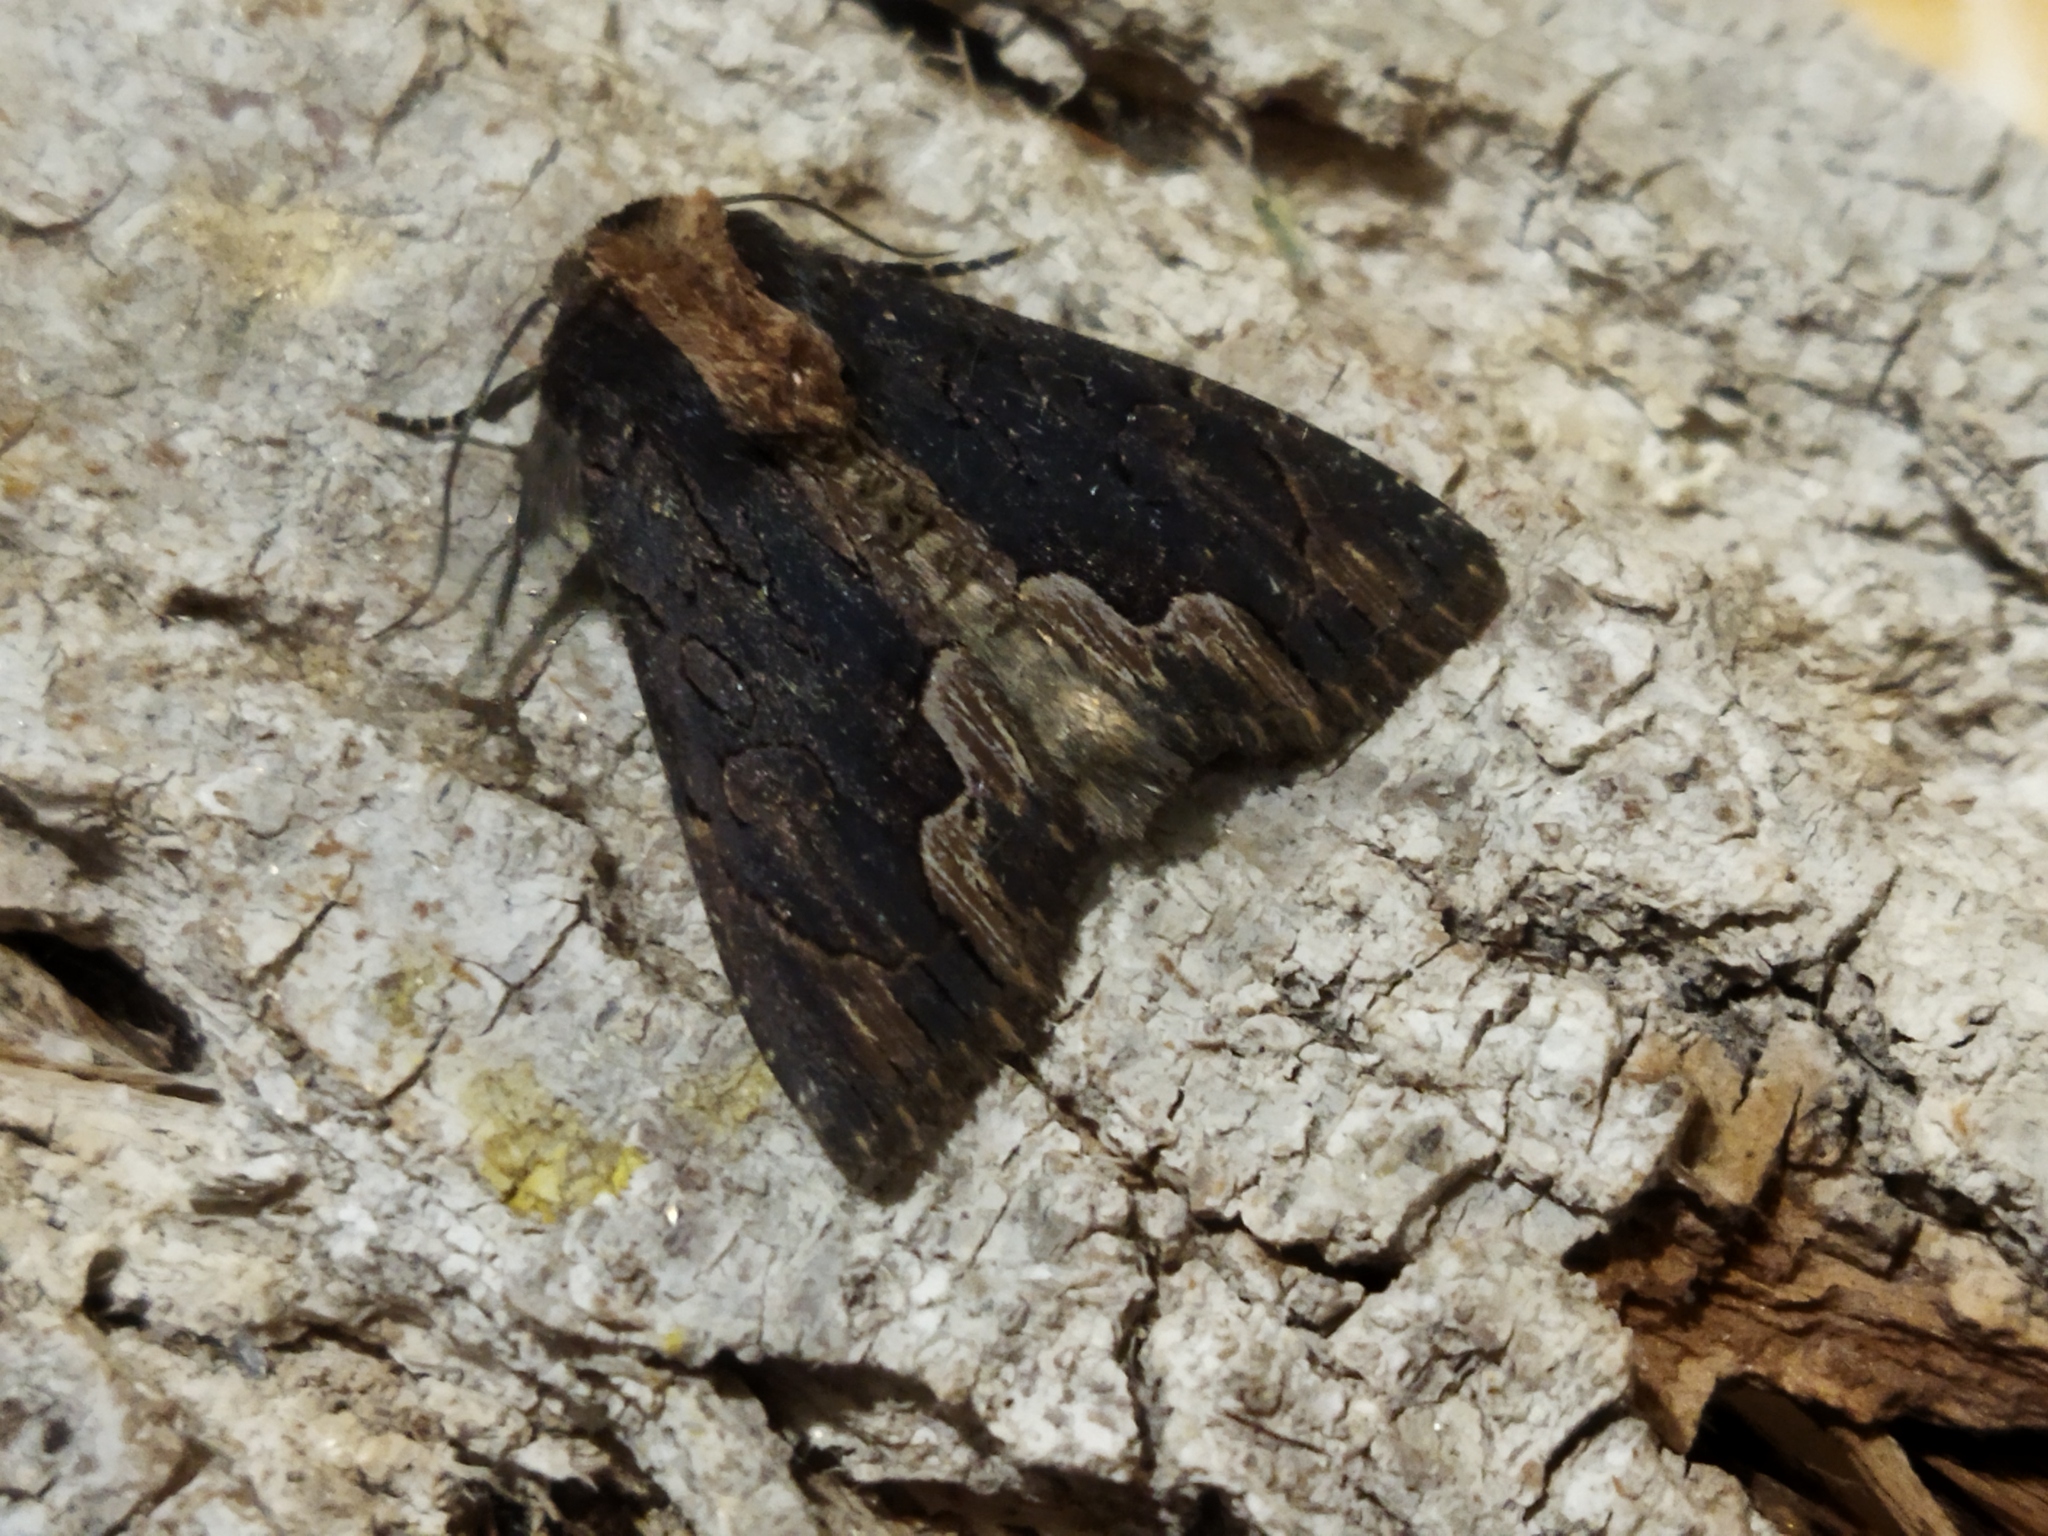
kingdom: Animalia
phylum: Arthropoda
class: Insecta
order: Lepidoptera
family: Noctuidae
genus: Dypterygia
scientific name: Dypterygia scabriuscula
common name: Bird's wing
